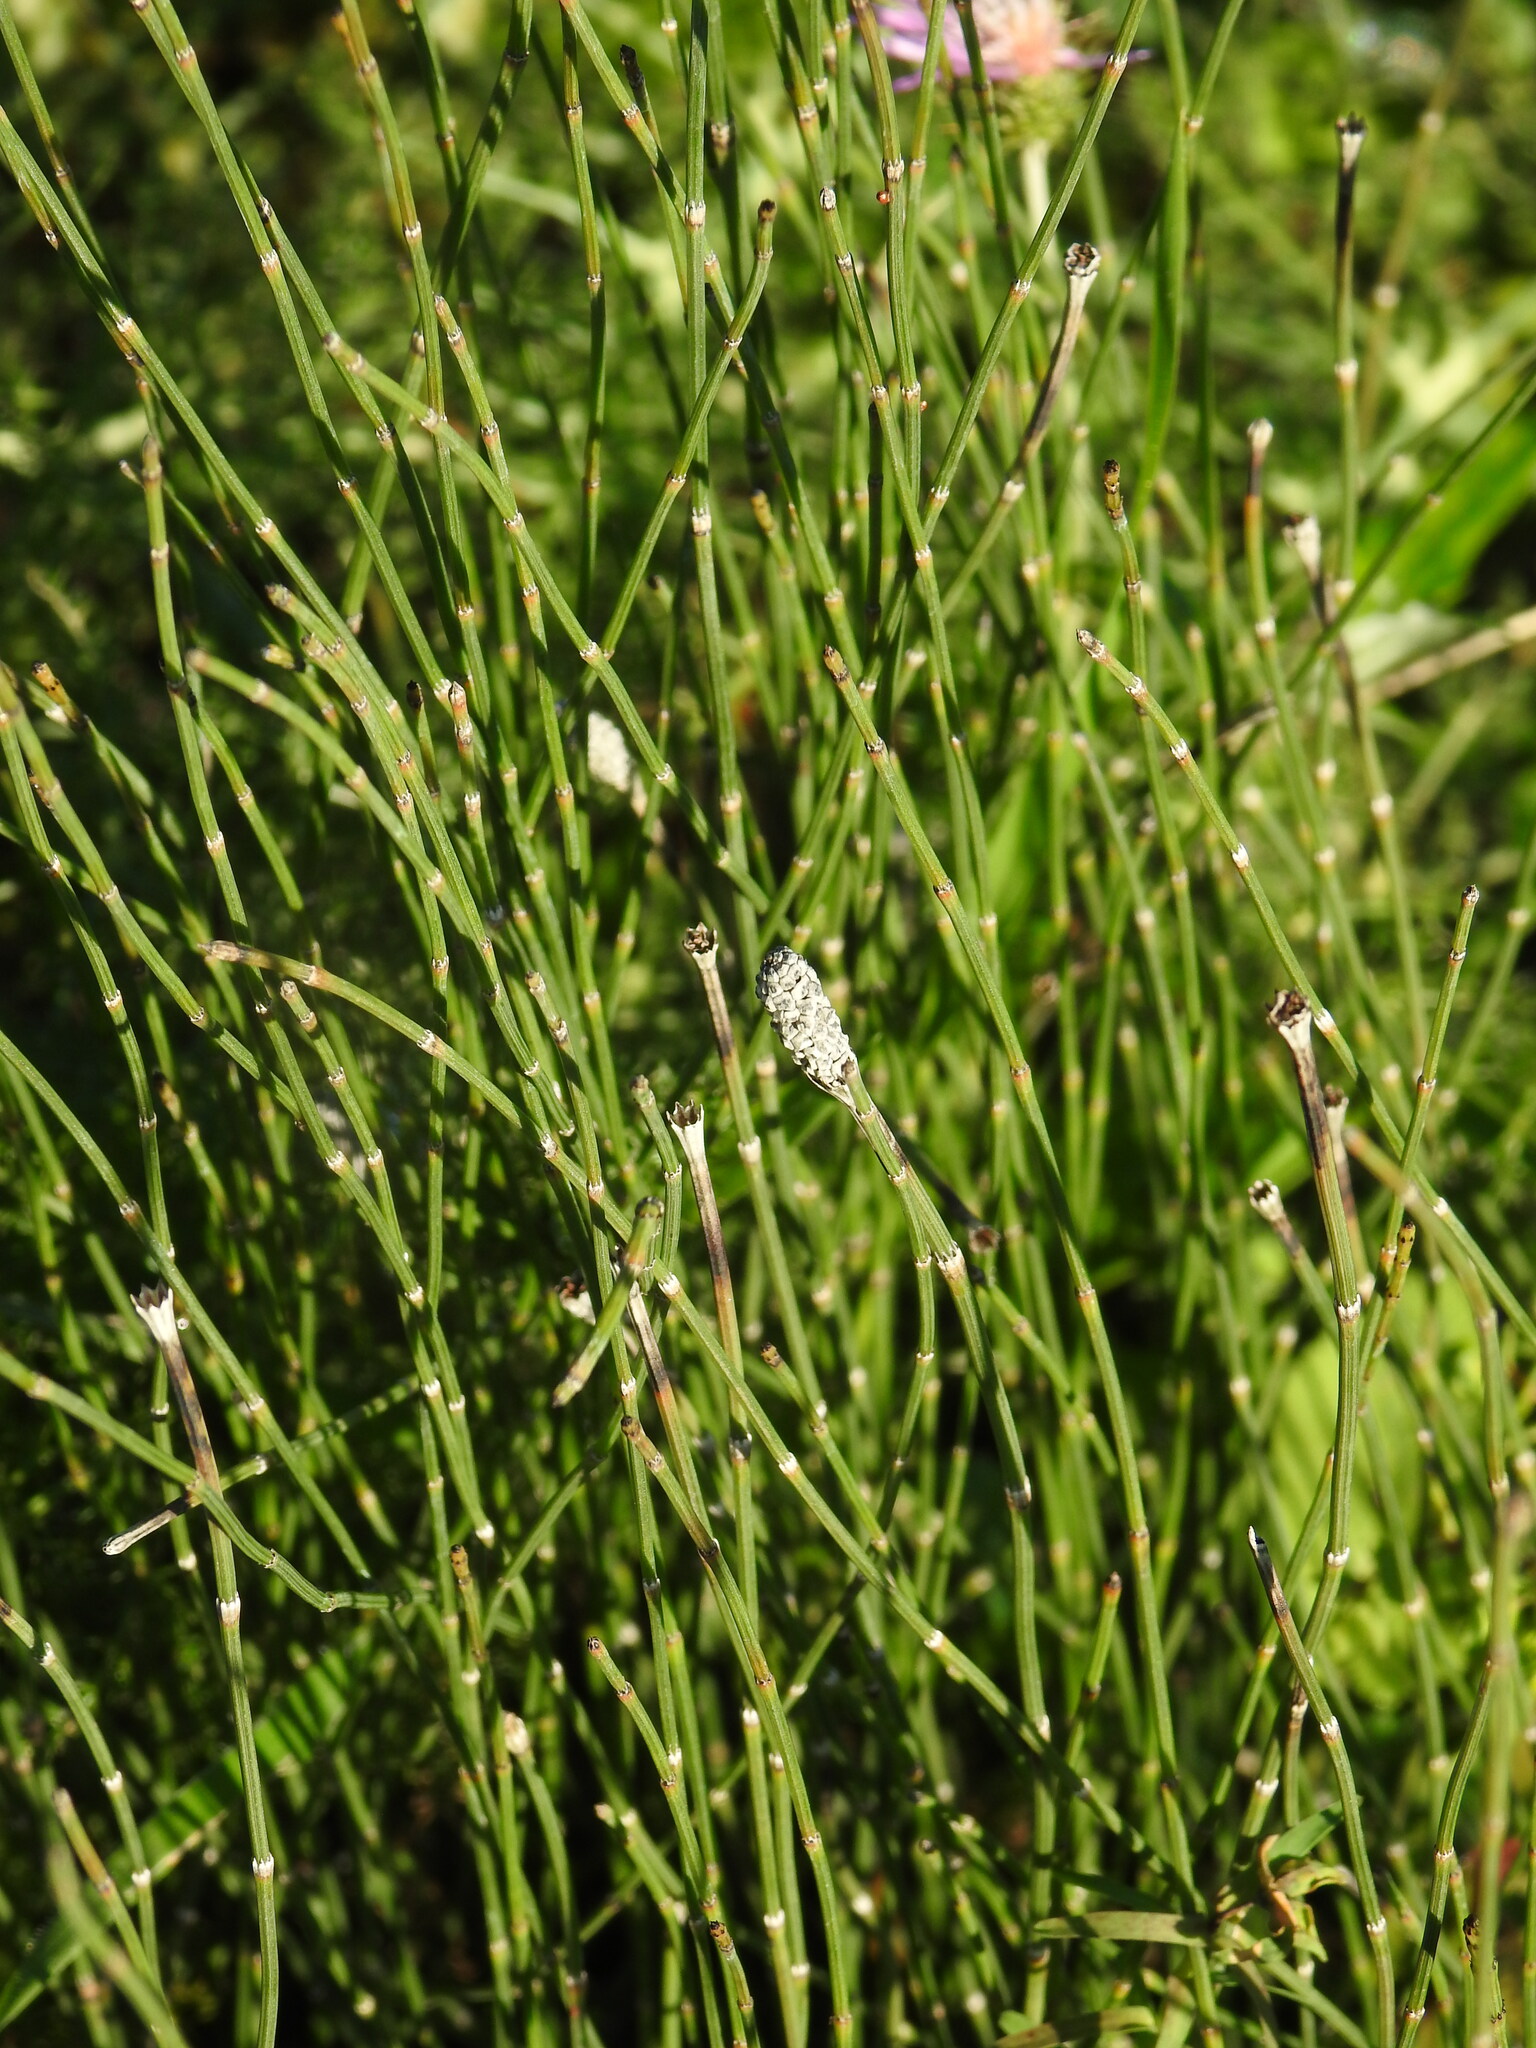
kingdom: Plantae
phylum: Tracheophyta
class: Polypodiopsida
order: Equisetales
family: Equisetaceae
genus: Equisetum
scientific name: Equisetum ramosissimum
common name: Branched horsetail
